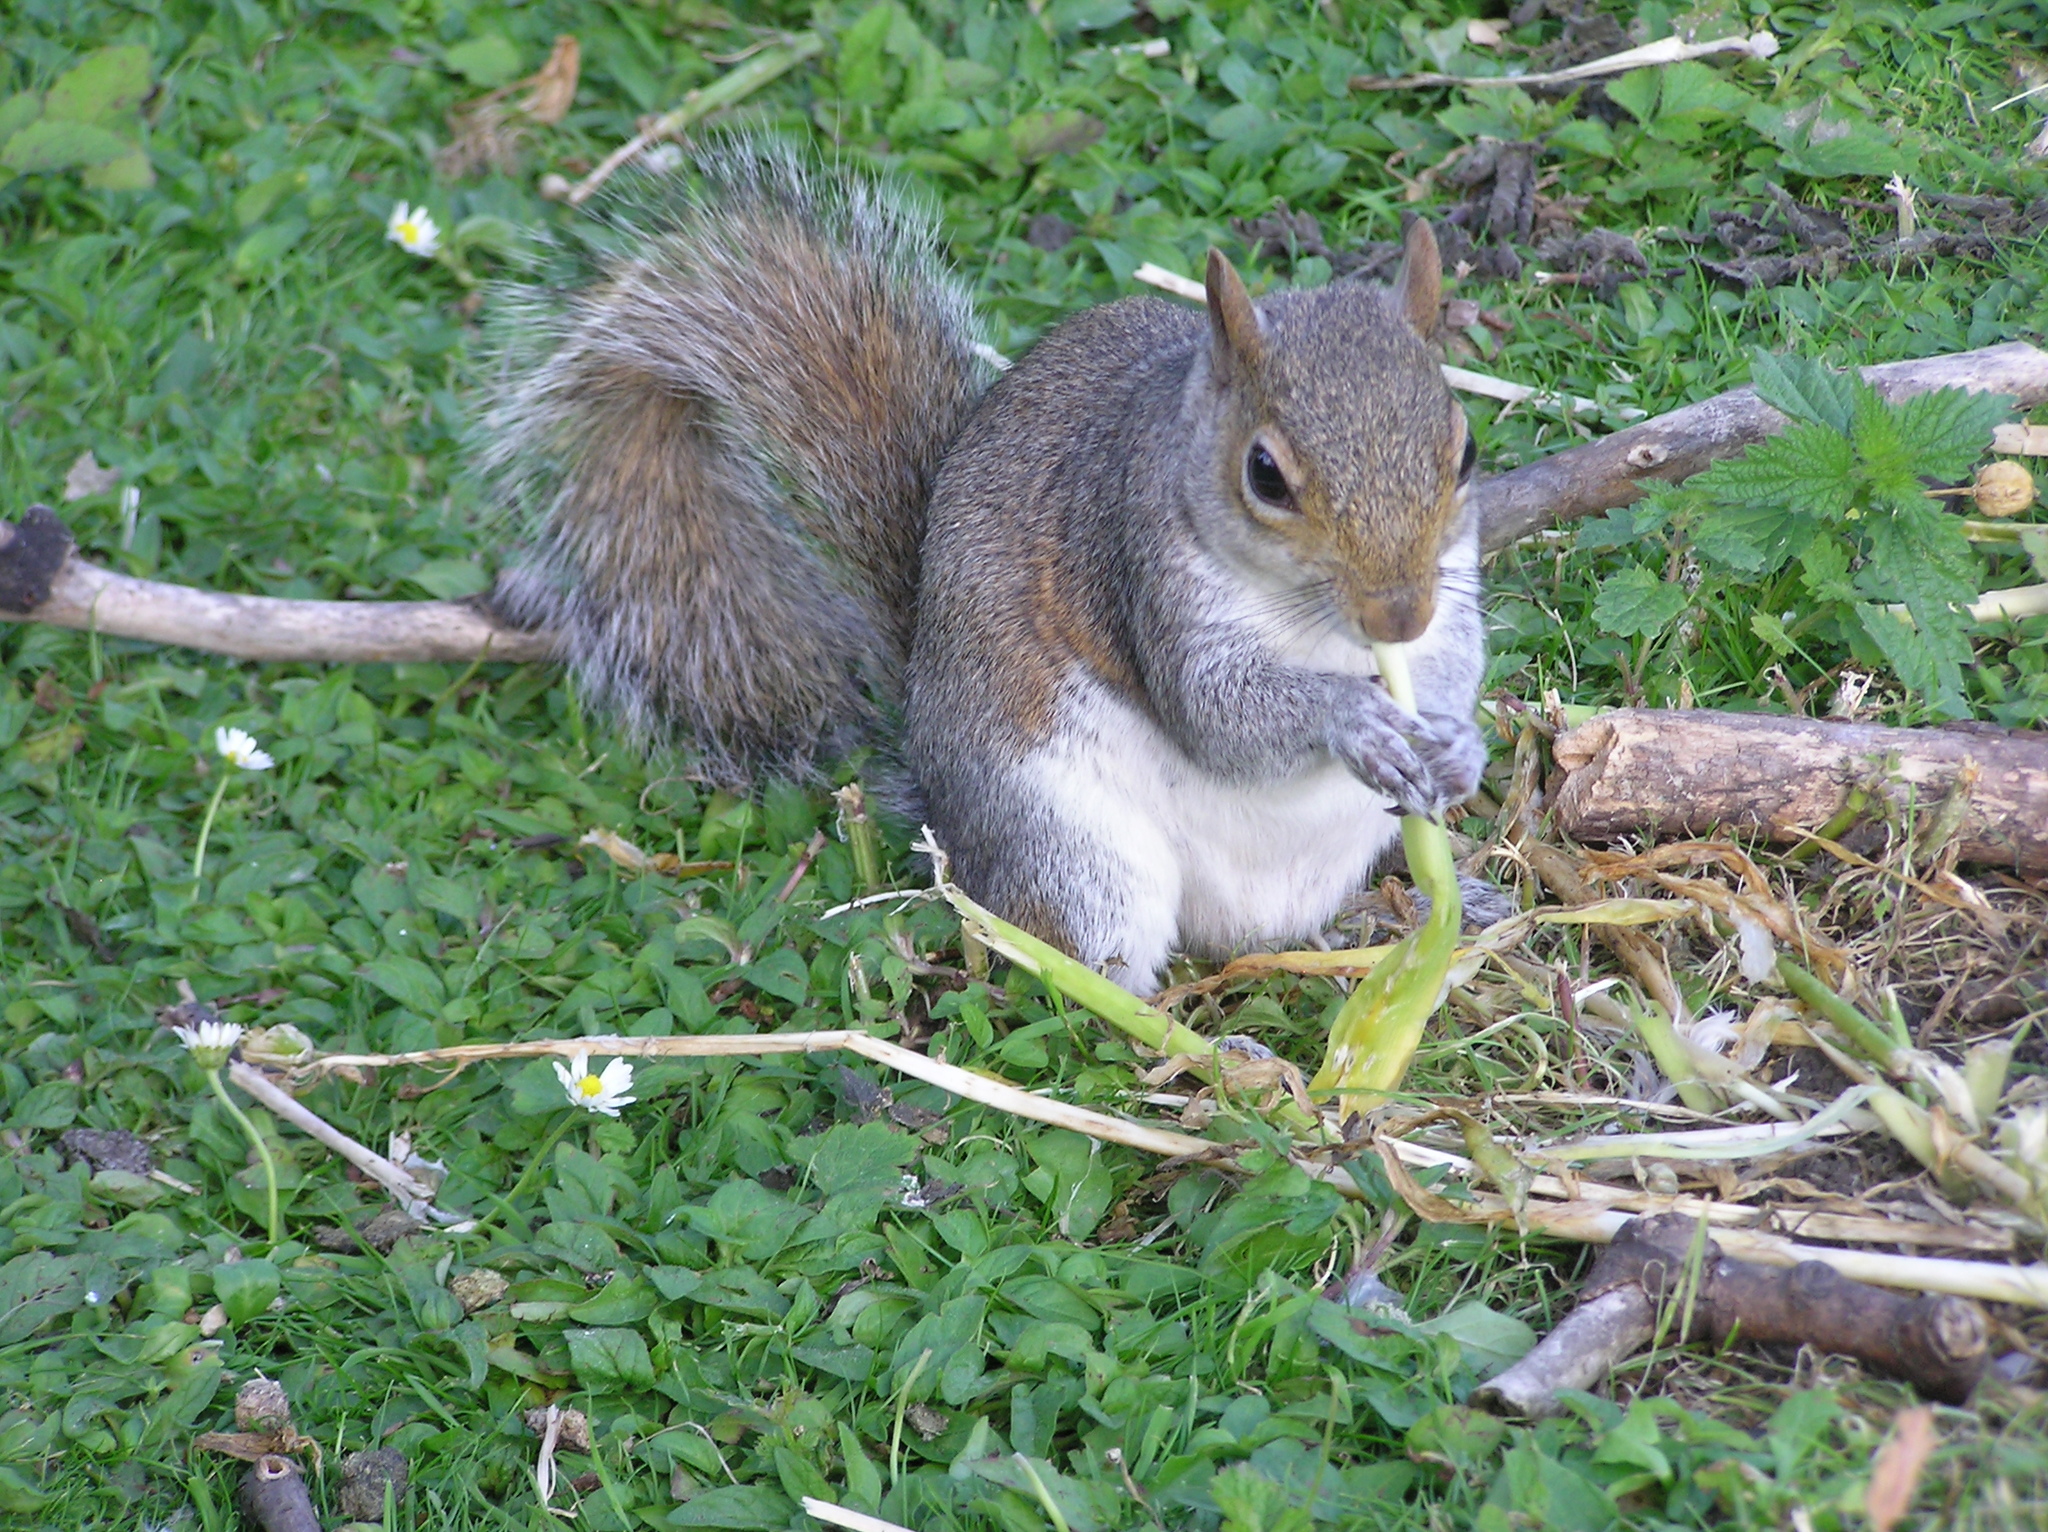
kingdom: Animalia
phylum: Chordata
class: Mammalia
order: Rodentia
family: Sciuridae
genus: Sciurus
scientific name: Sciurus carolinensis
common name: Eastern gray squirrel
